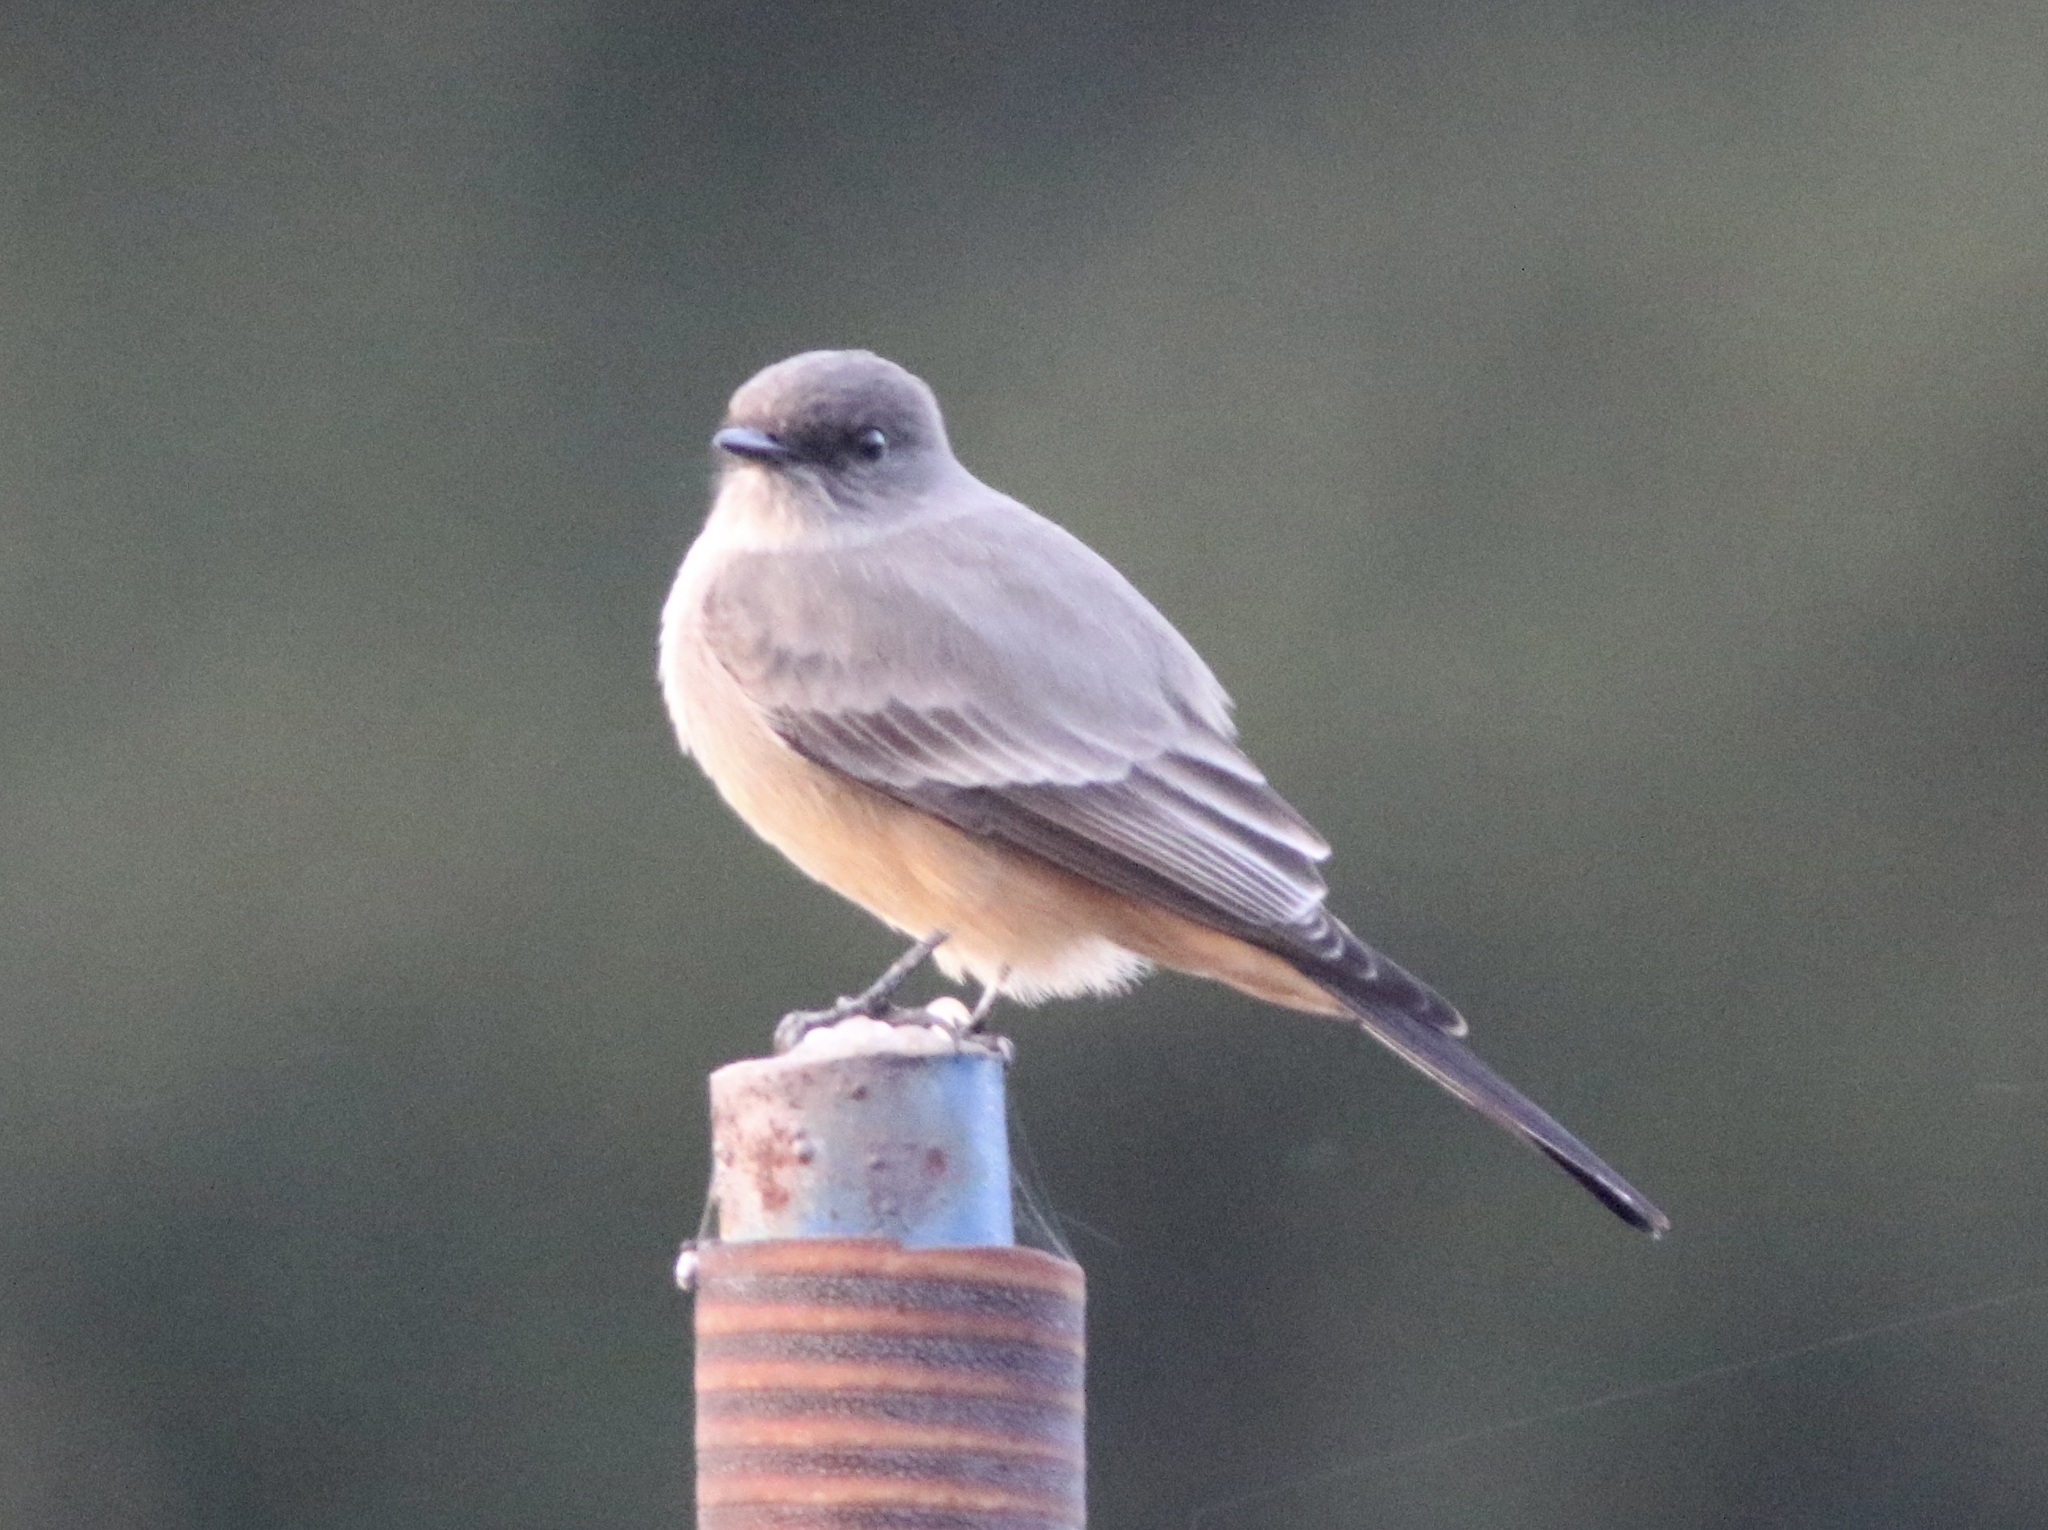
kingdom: Animalia
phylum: Chordata
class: Aves
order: Passeriformes
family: Tyrannidae
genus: Sayornis
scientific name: Sayornis saya
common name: Say's phoebe
